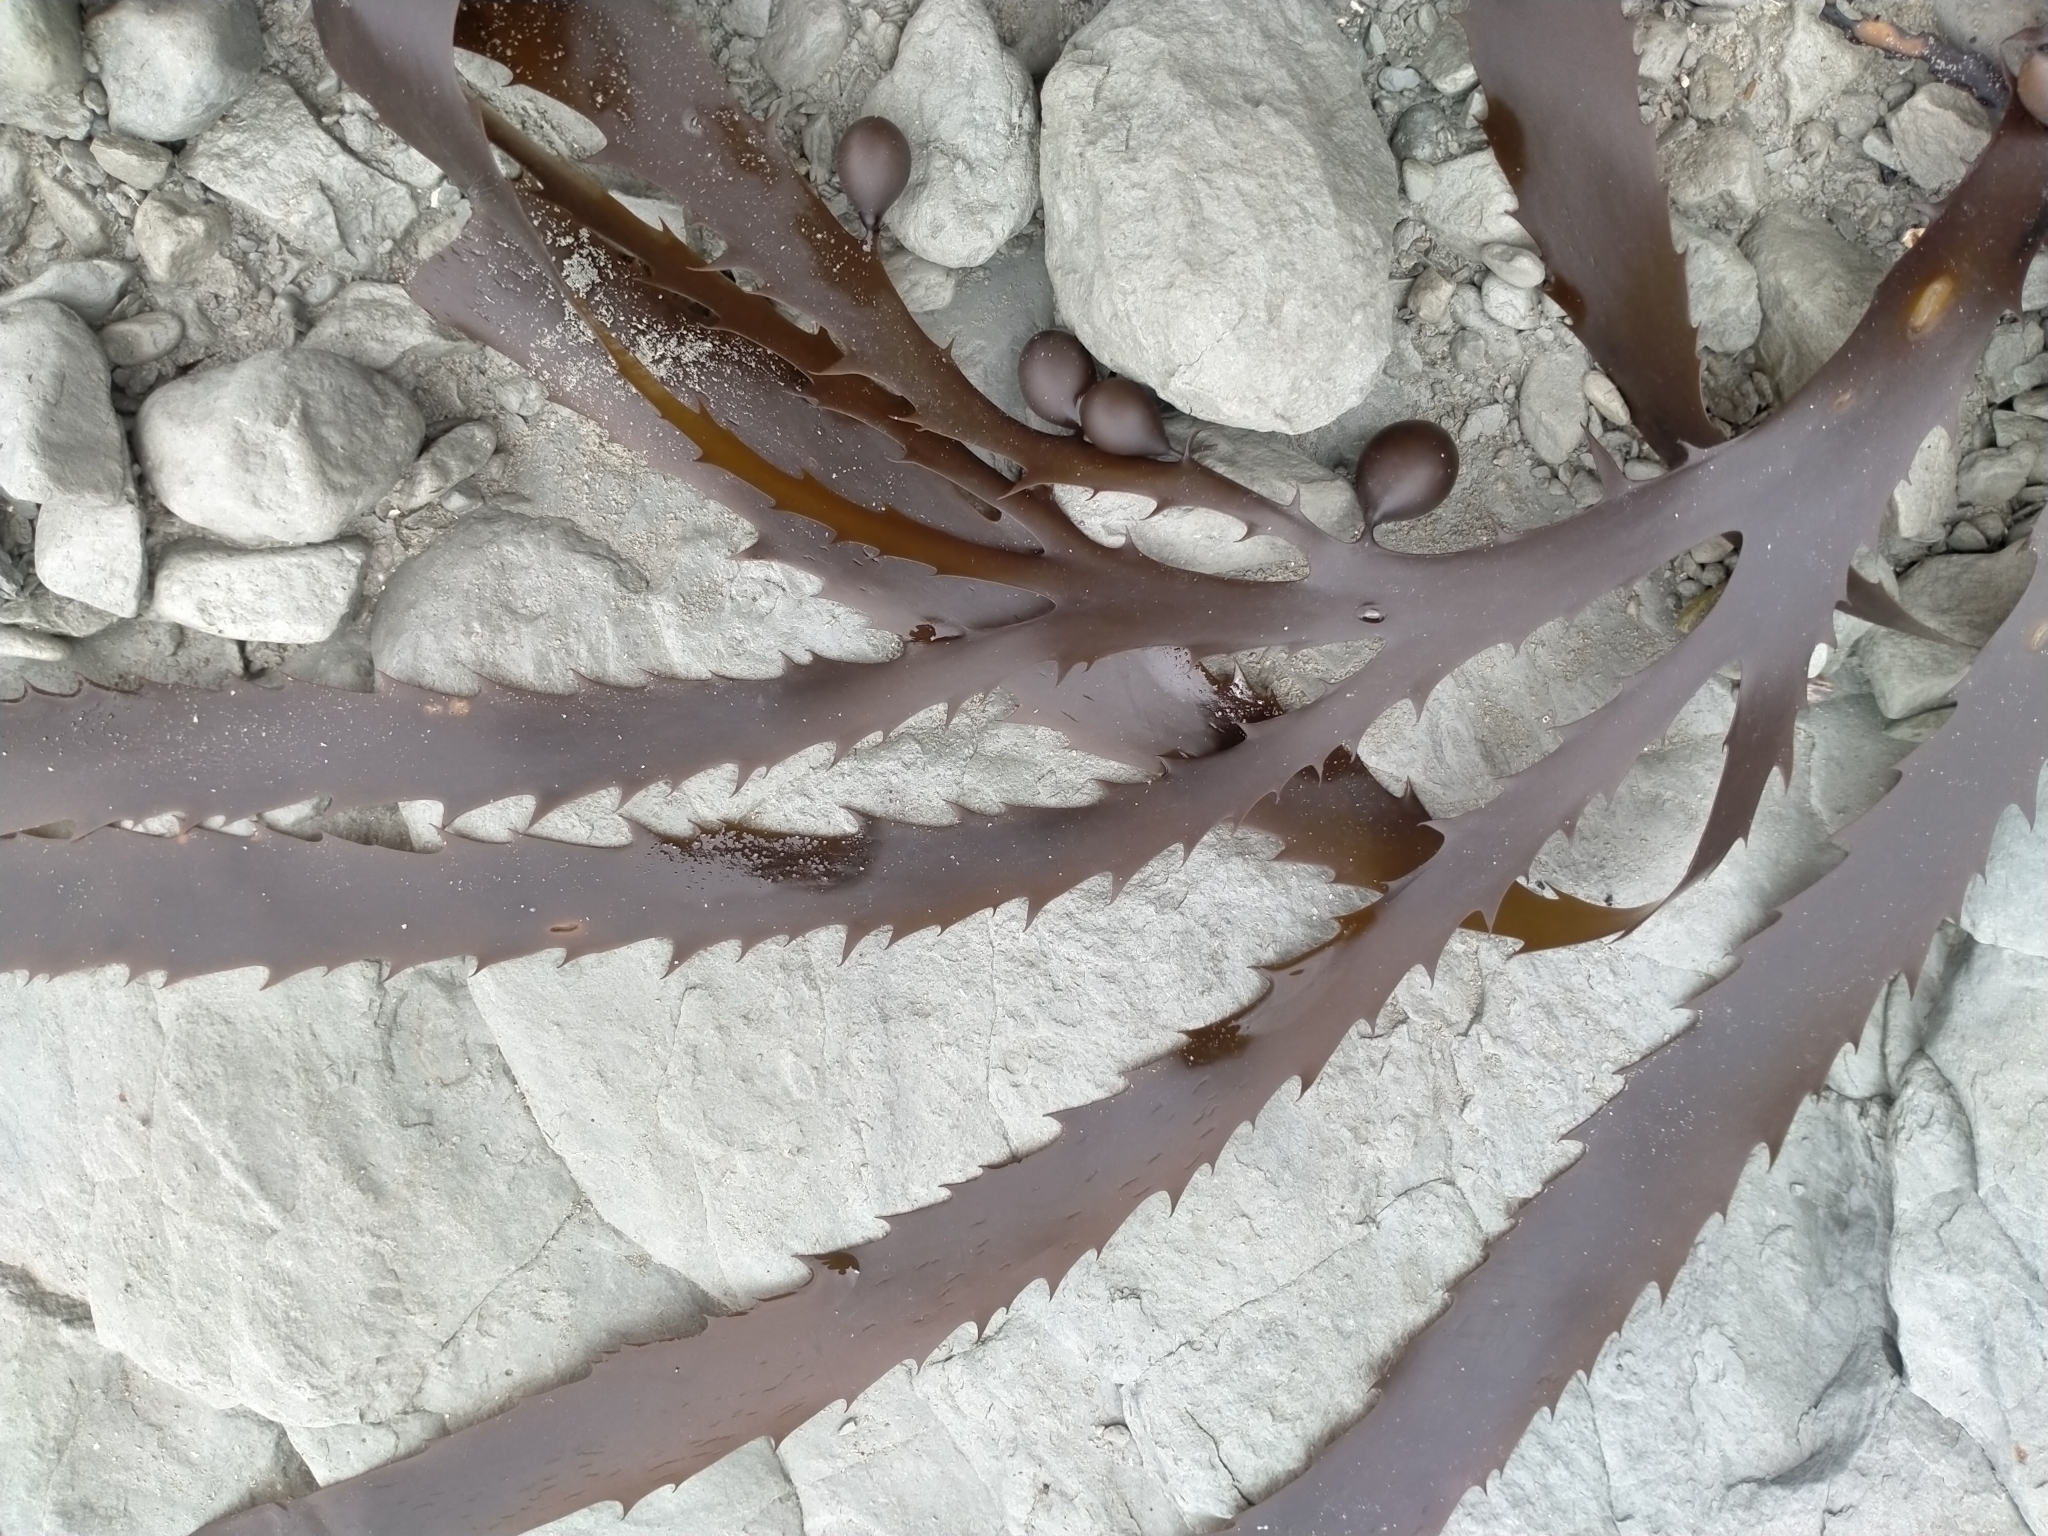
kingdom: Chromista
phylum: Ochrophyta
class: Phaeophyceae
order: Fucales
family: Seirococcaceae
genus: Marginariella
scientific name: Marginariella urvilliana
